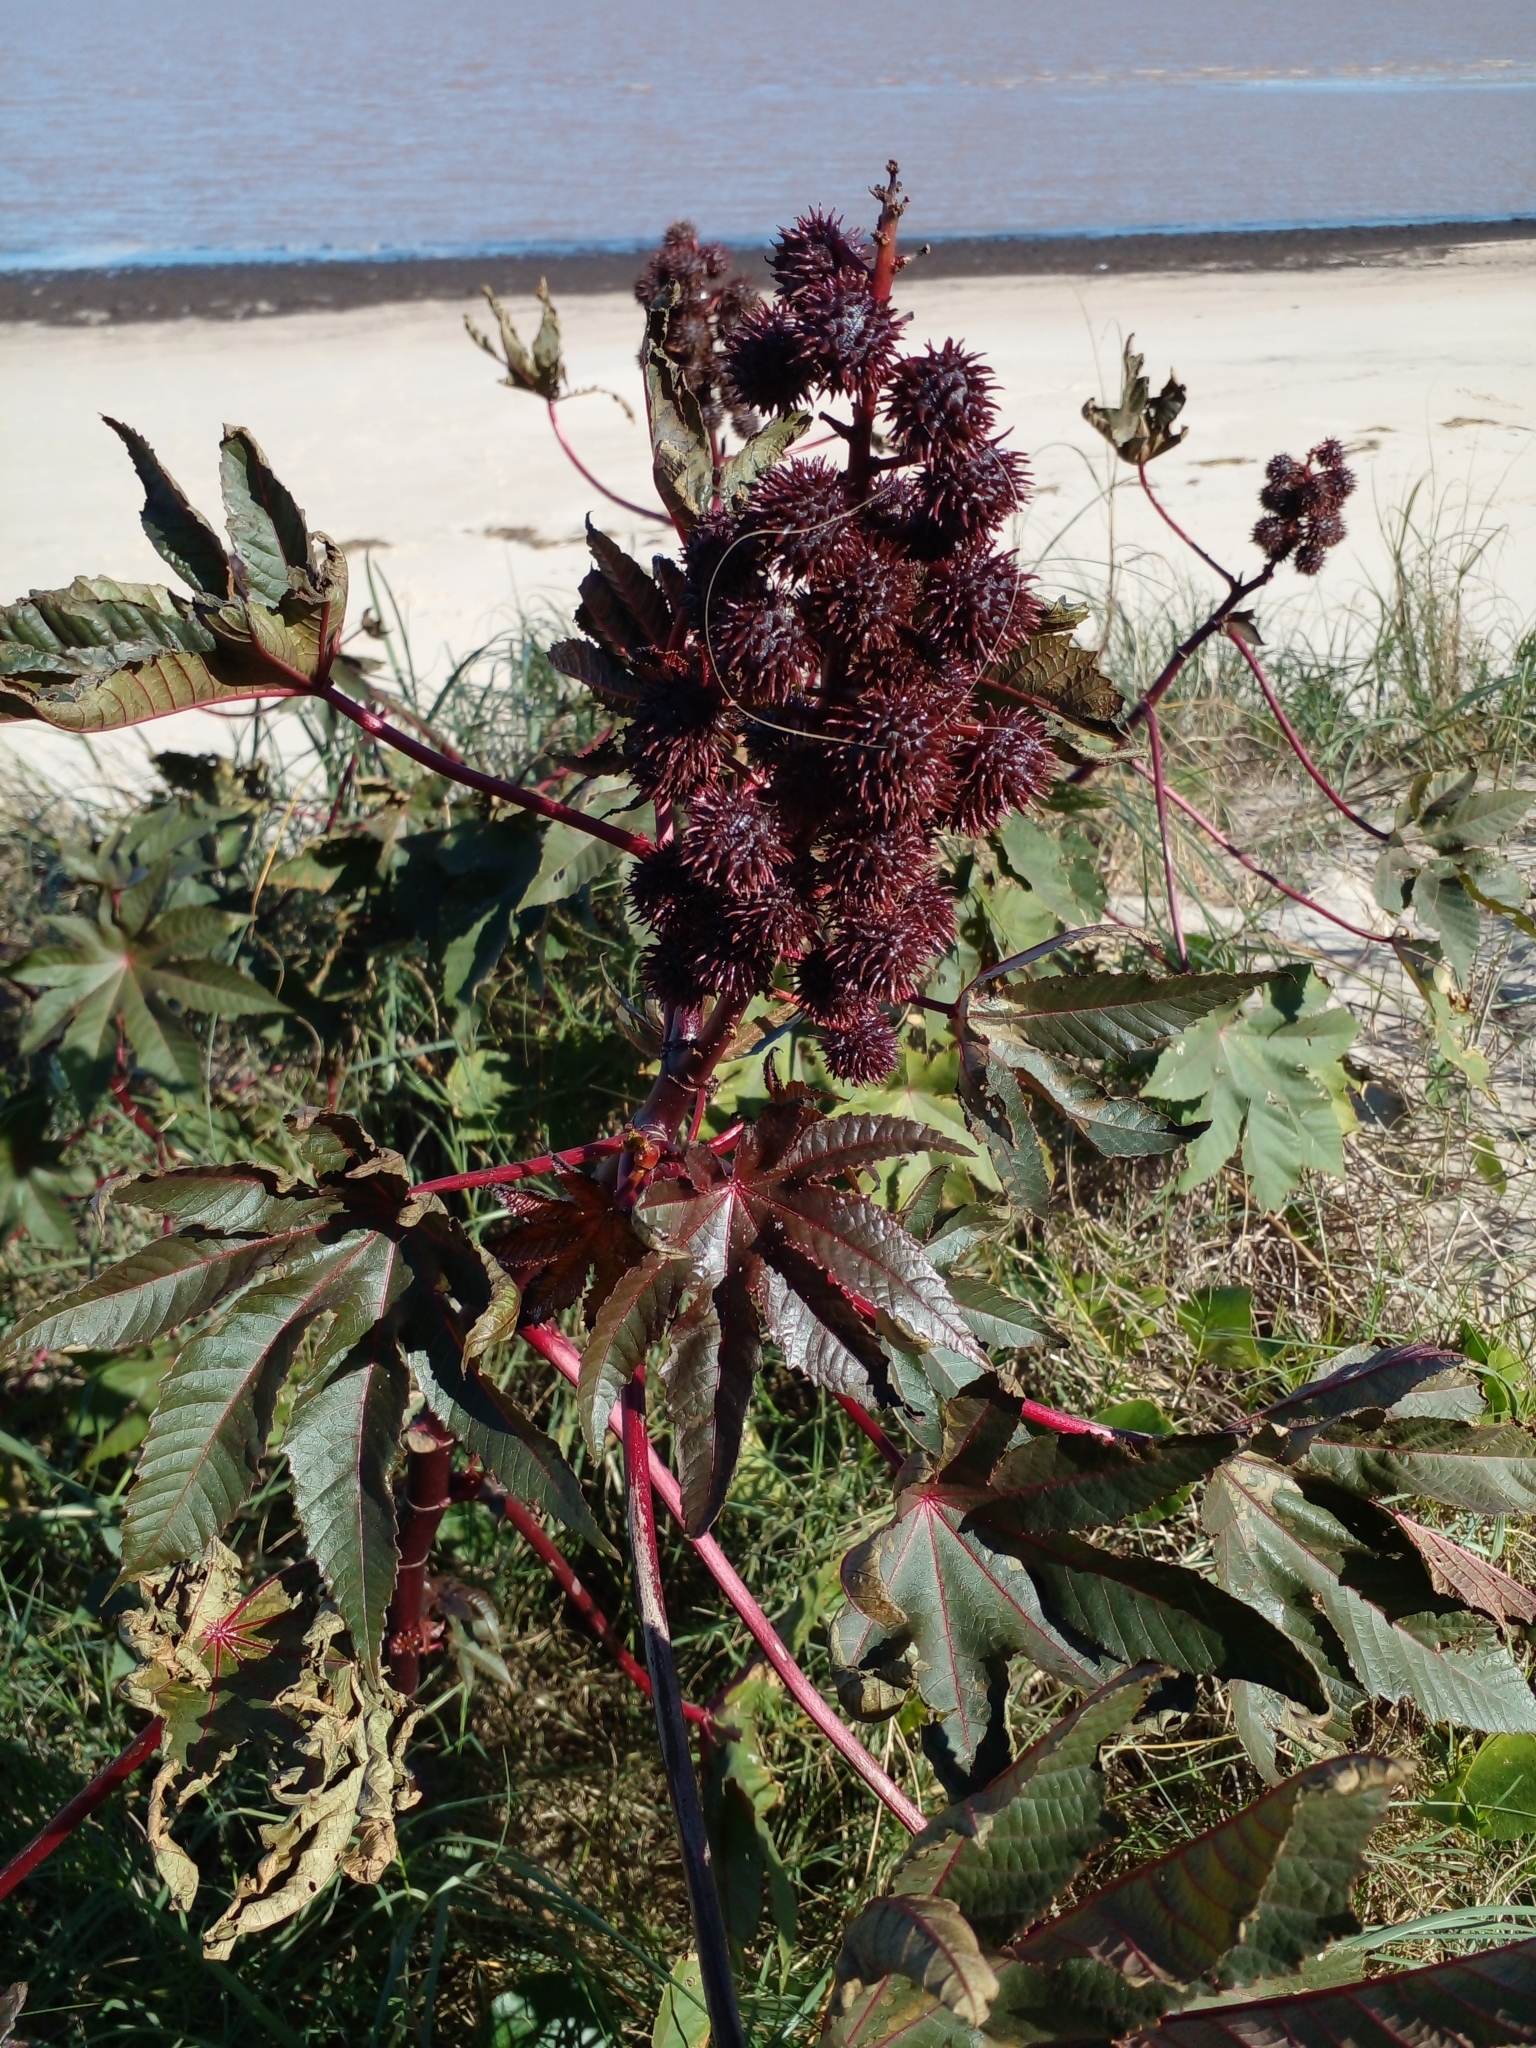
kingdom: Plantae
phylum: Tracheophyta
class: Magnoliopsida
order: Malpighiales
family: Euphorbiaceae
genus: Ricinus
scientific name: Ricinus communis
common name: Castor-oil-plant
